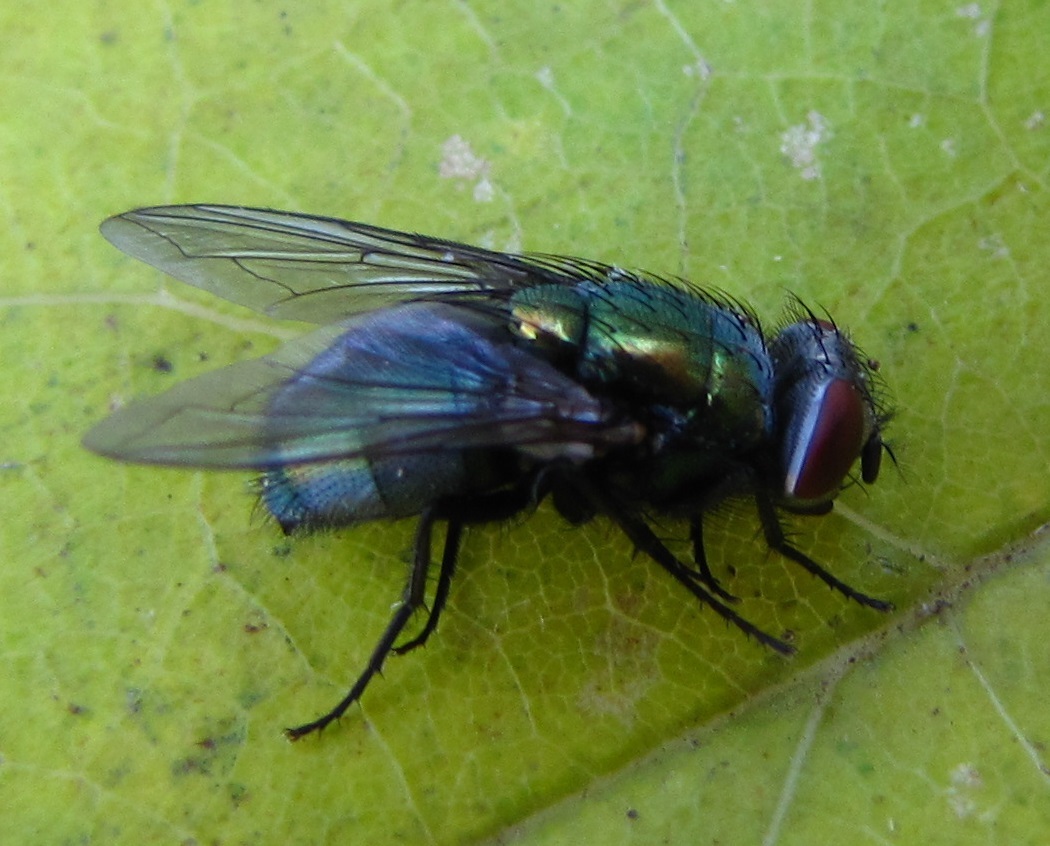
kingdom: Animalia
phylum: Arthropoda
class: Insecta
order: Diptera
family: Calliphoridae
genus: Lucilia
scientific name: Lucilia sericata
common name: Blow fly
